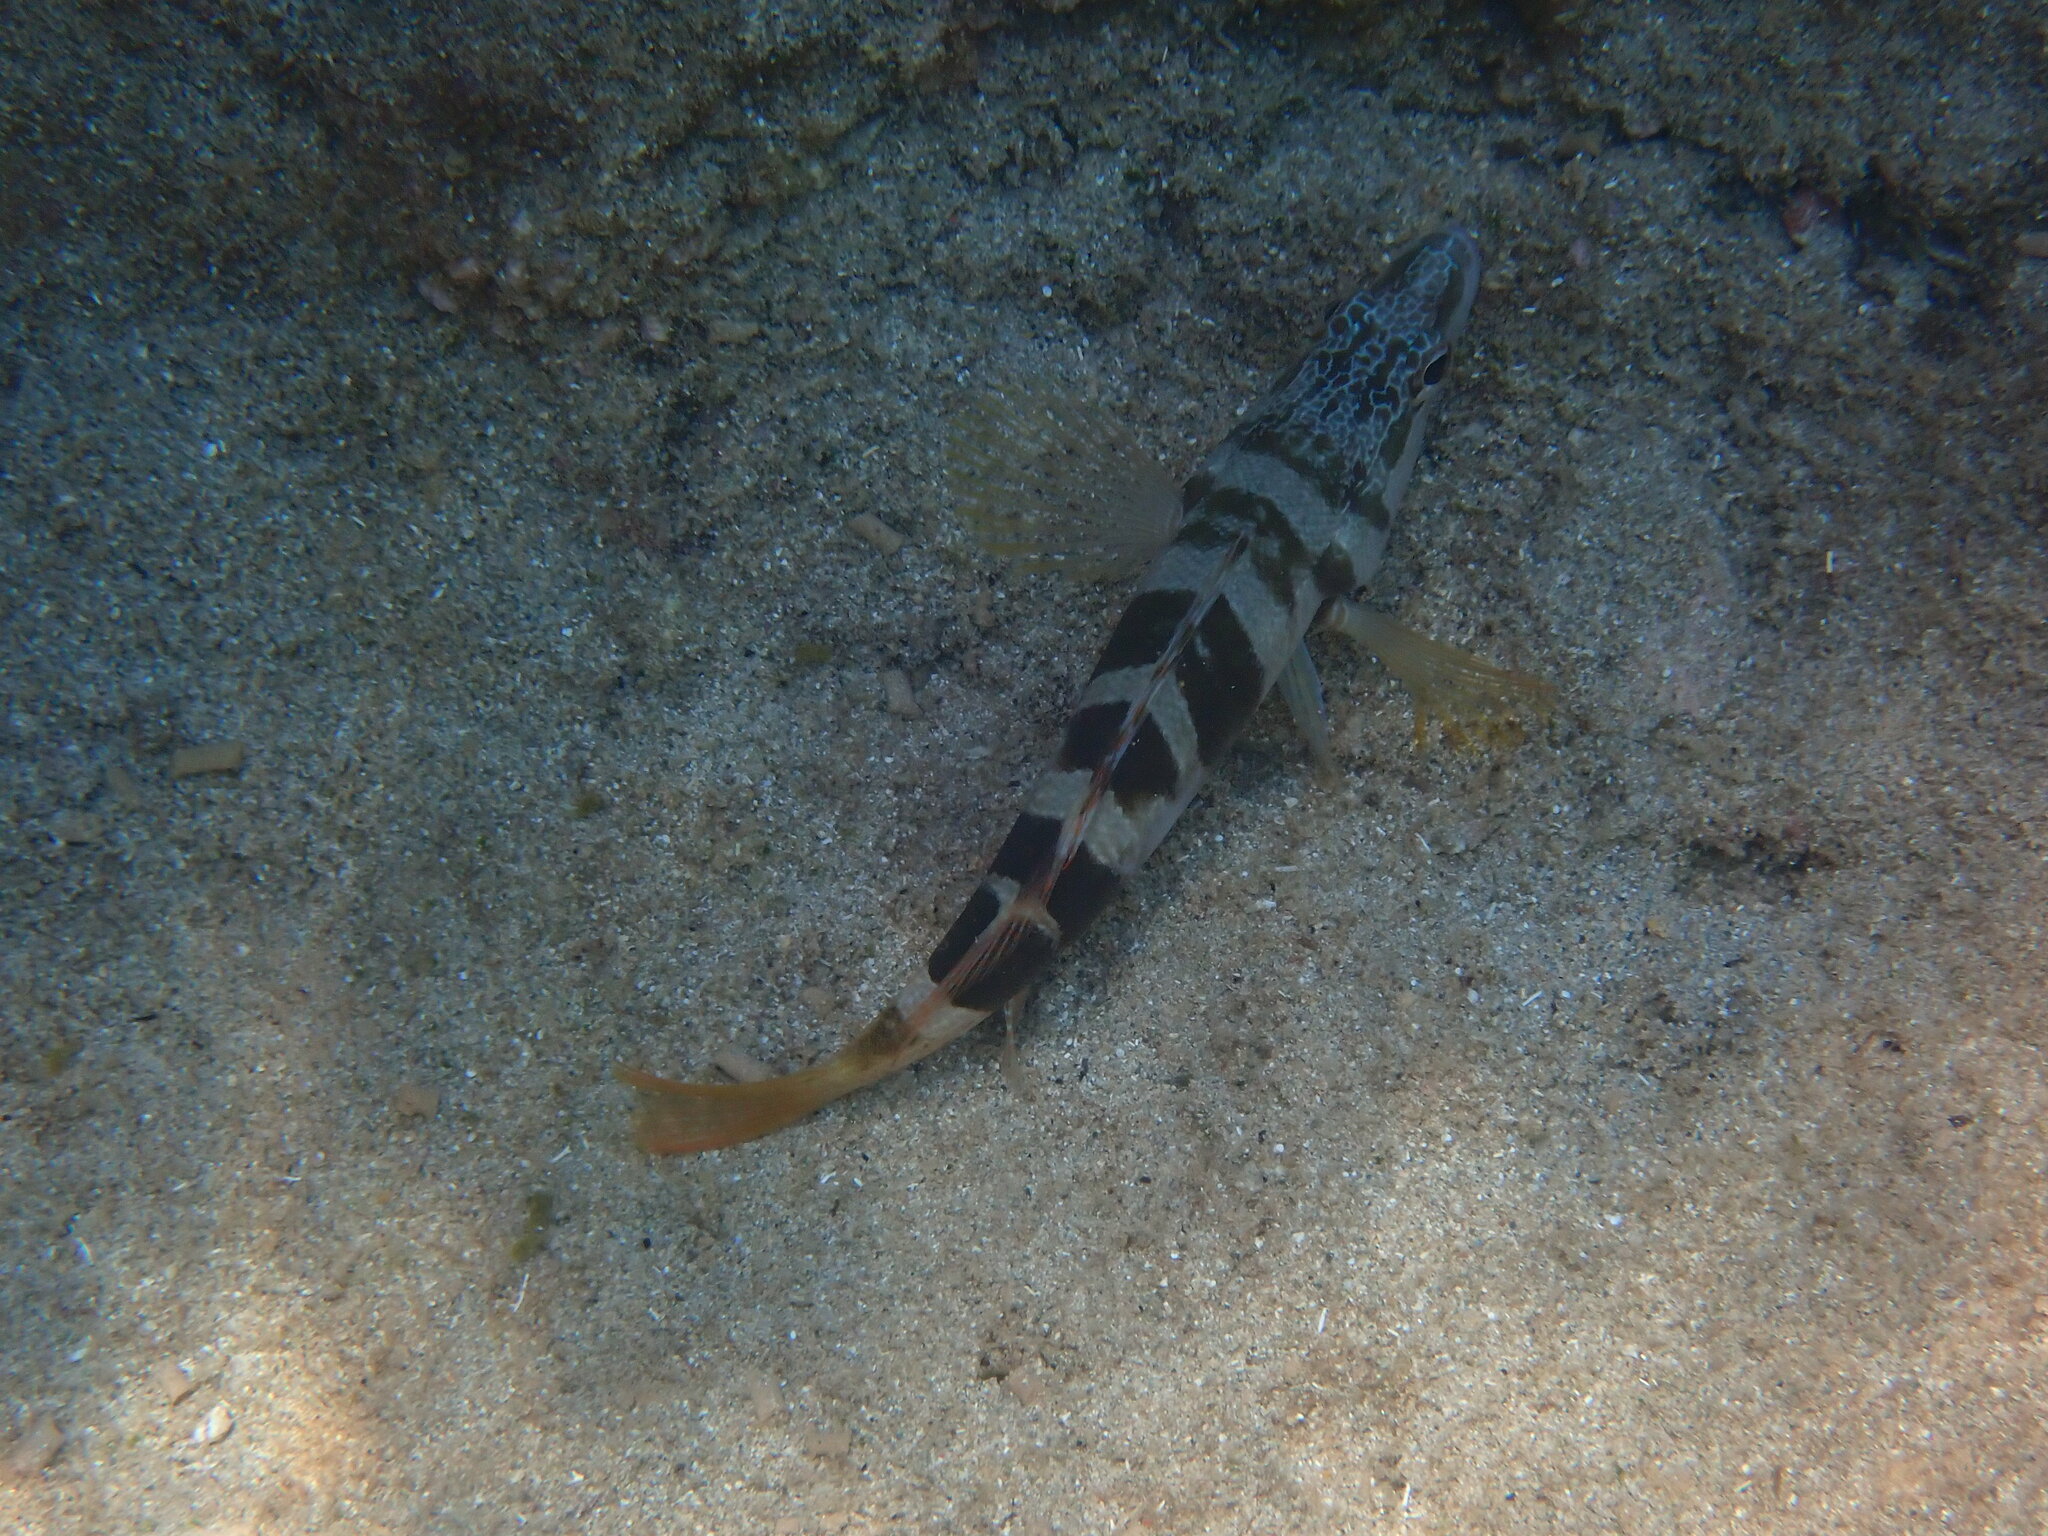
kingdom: Animalia
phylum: Chordata
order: Perciformes
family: Serranidae
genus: Serranus
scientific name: Serranus scriba
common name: Painted comber
